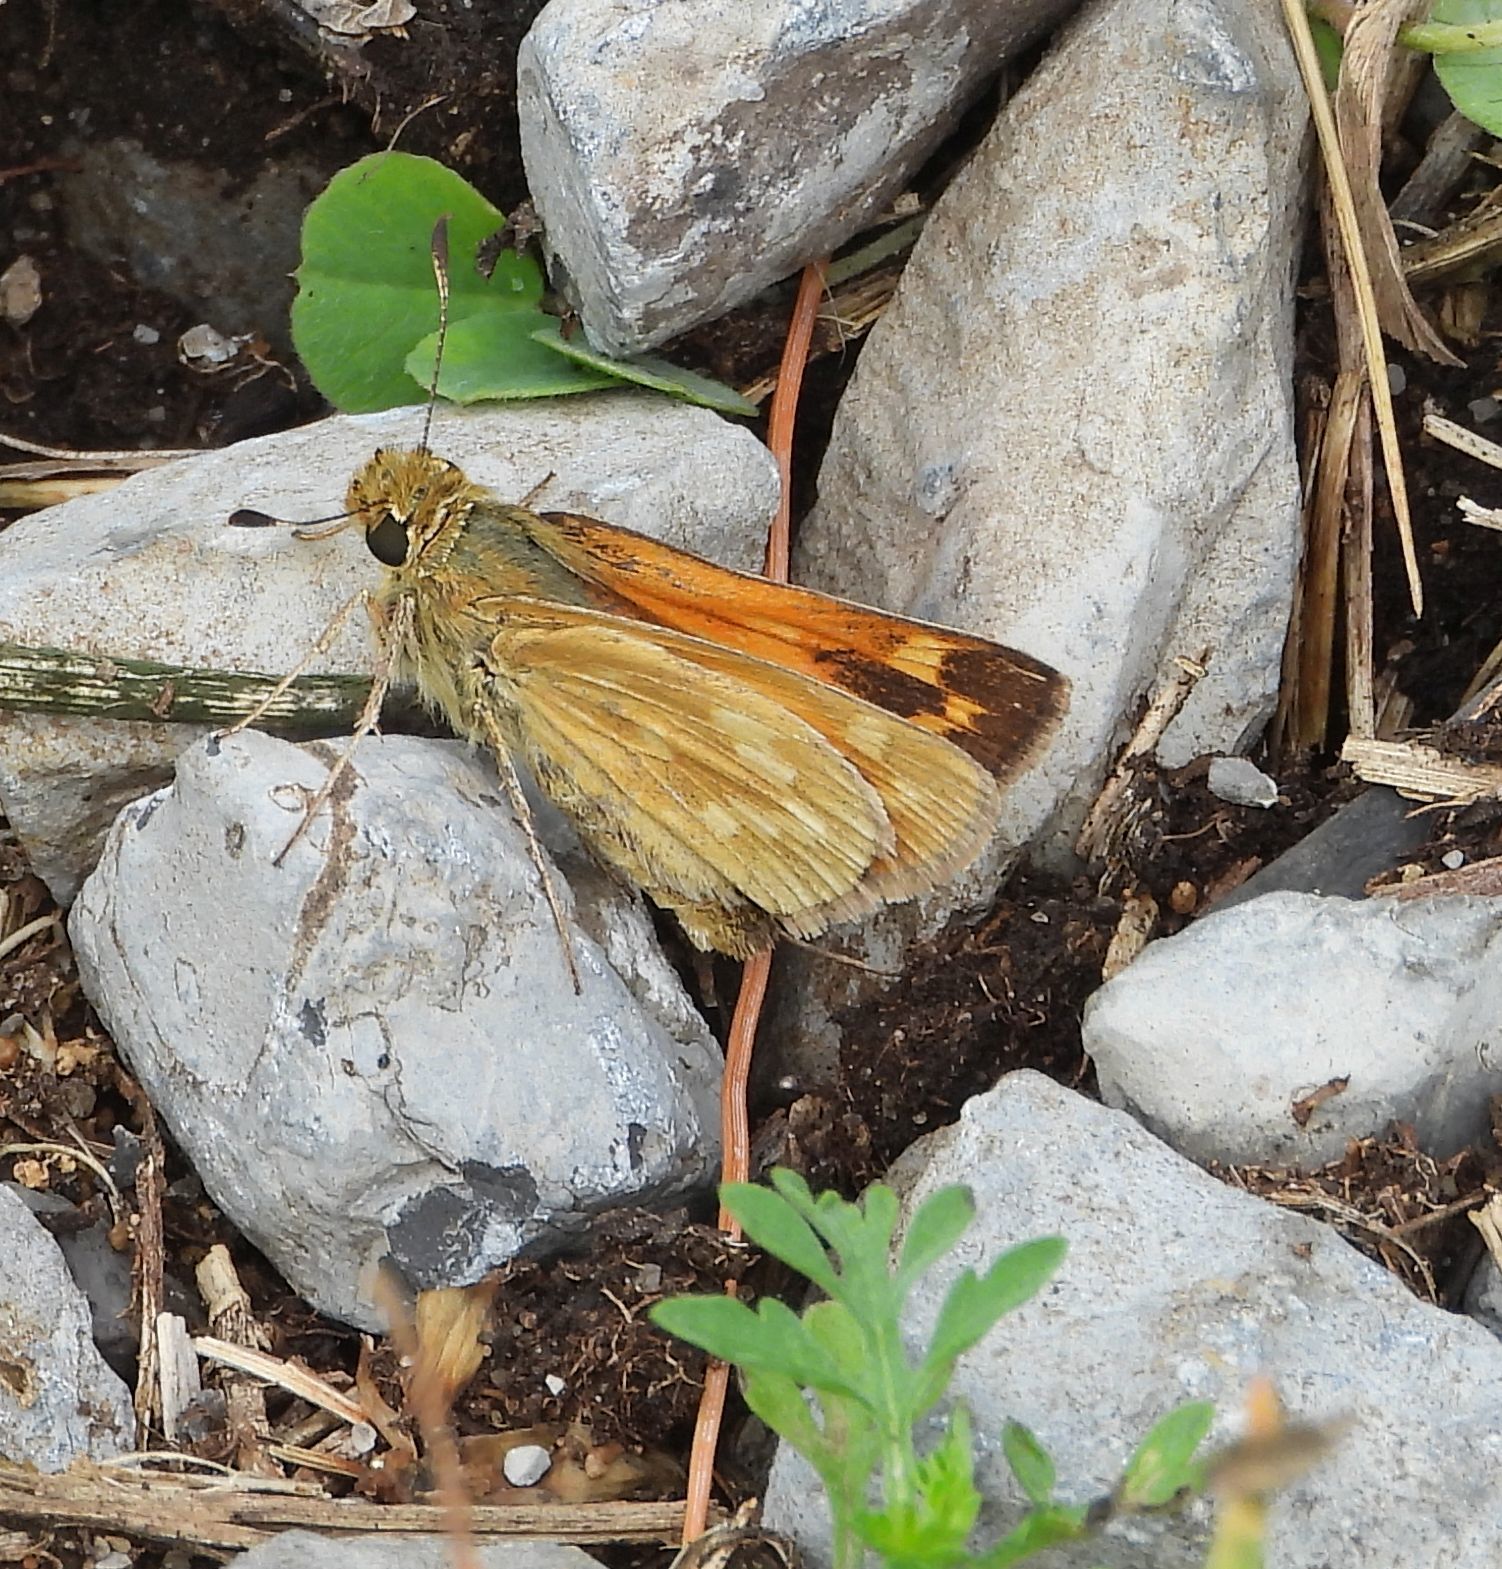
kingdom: Animalia
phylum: Arthropoda
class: Insecta
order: Lepidoptera
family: Hesperiidae
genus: Hesperia
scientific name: Hesperia sassacus
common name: Indian skipper
